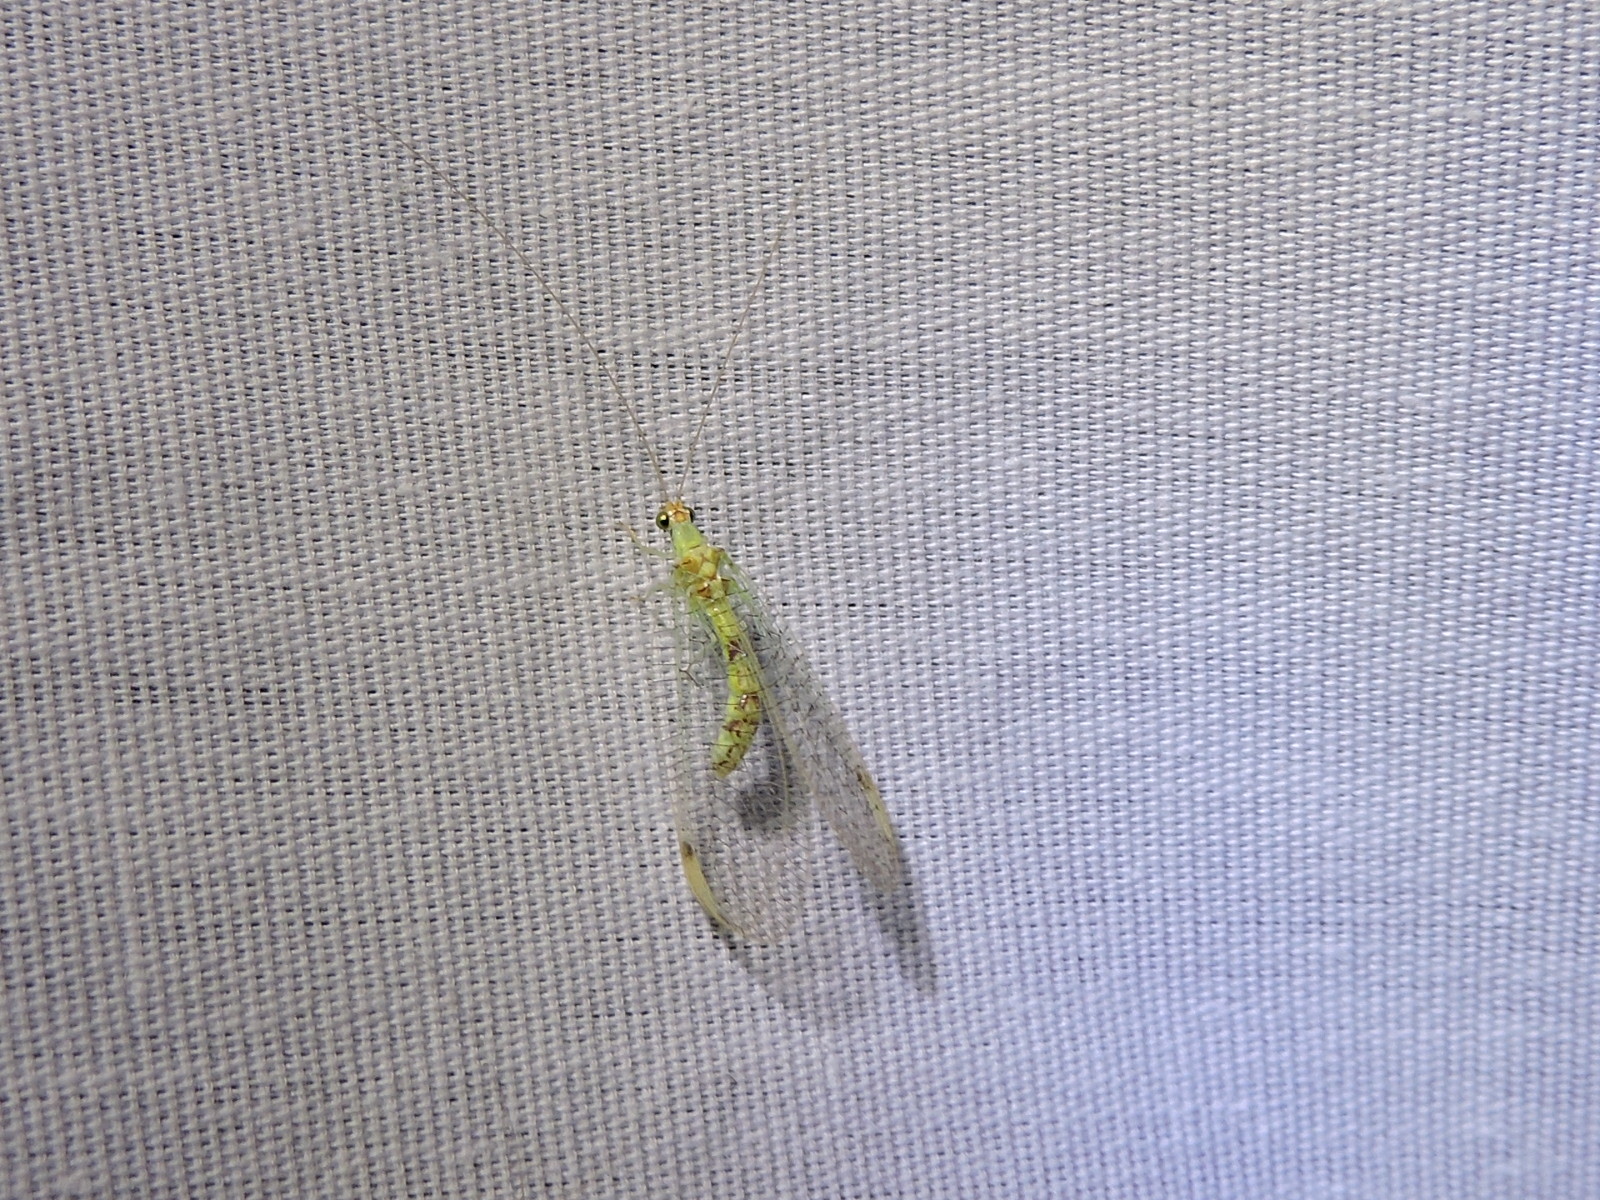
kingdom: Animalia
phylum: Arthropoda
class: Insecta
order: Neuroptera
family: Chrysopidae
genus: Leucochrysa
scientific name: Leucochrysa americana
